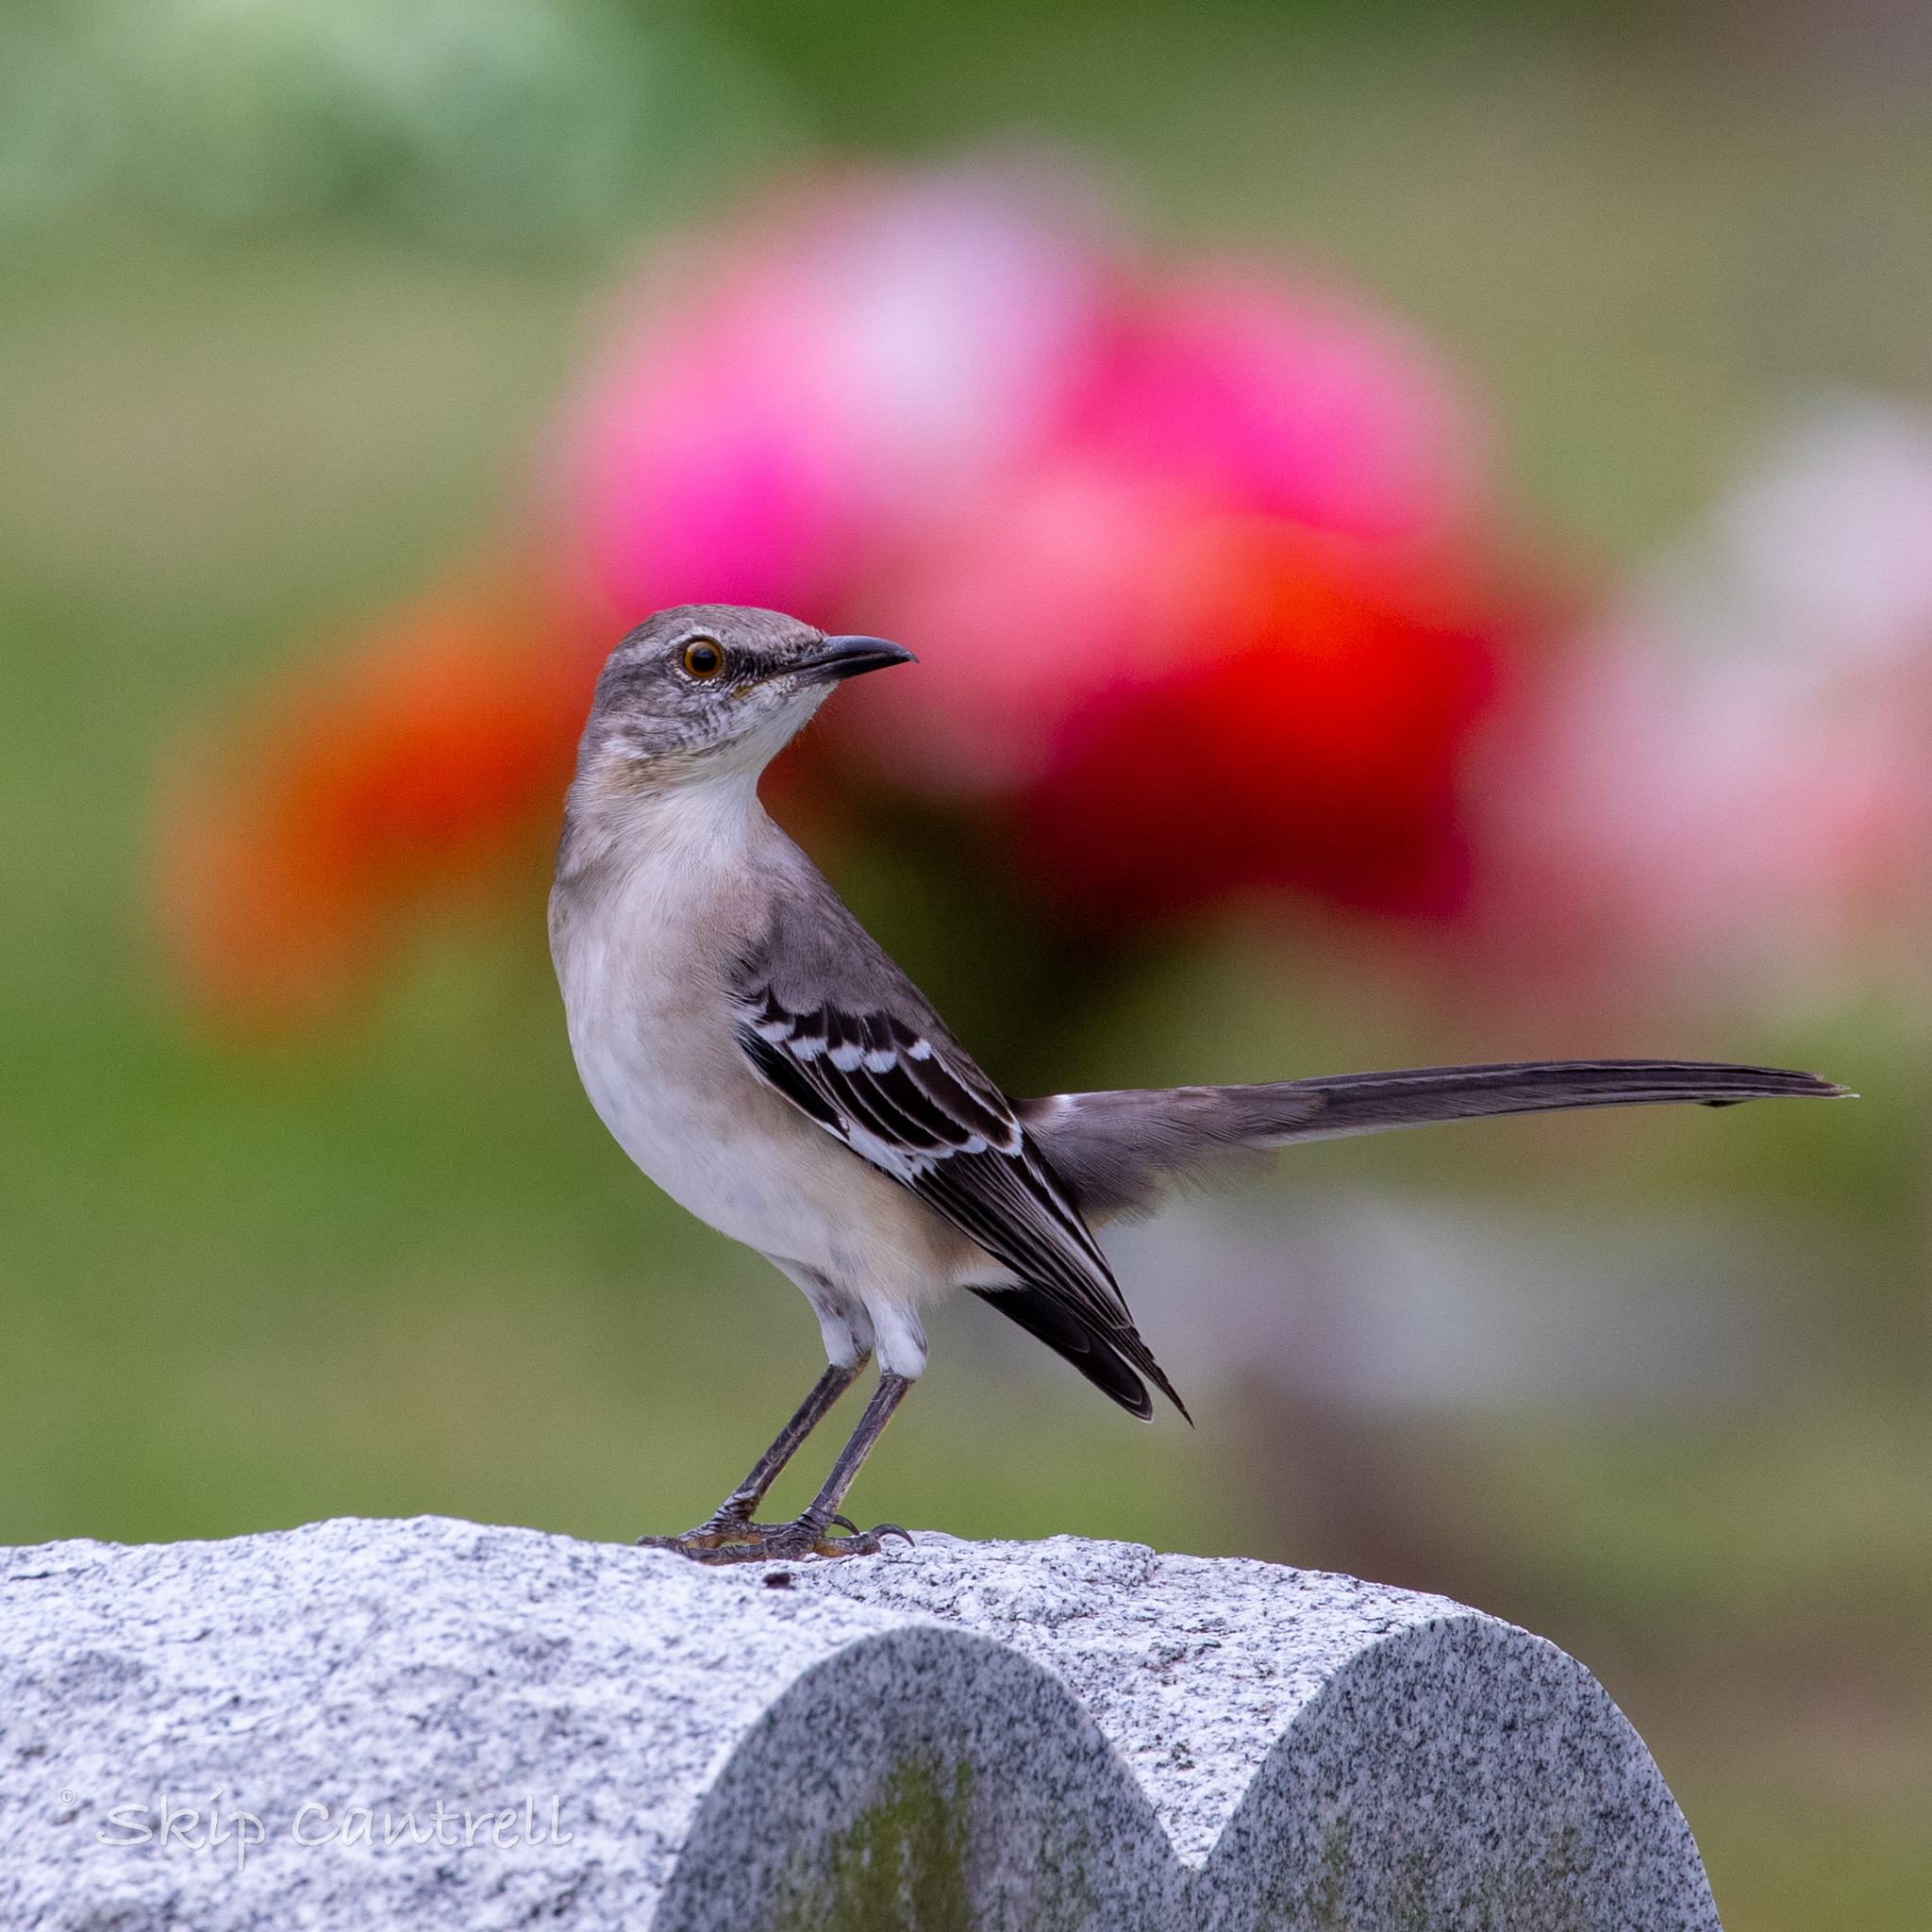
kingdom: Animalia
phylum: Chordata
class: Aves
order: Passeriformes
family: Mimidae
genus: Mimus
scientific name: Mimus polyglottos
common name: Northern mockingbird
